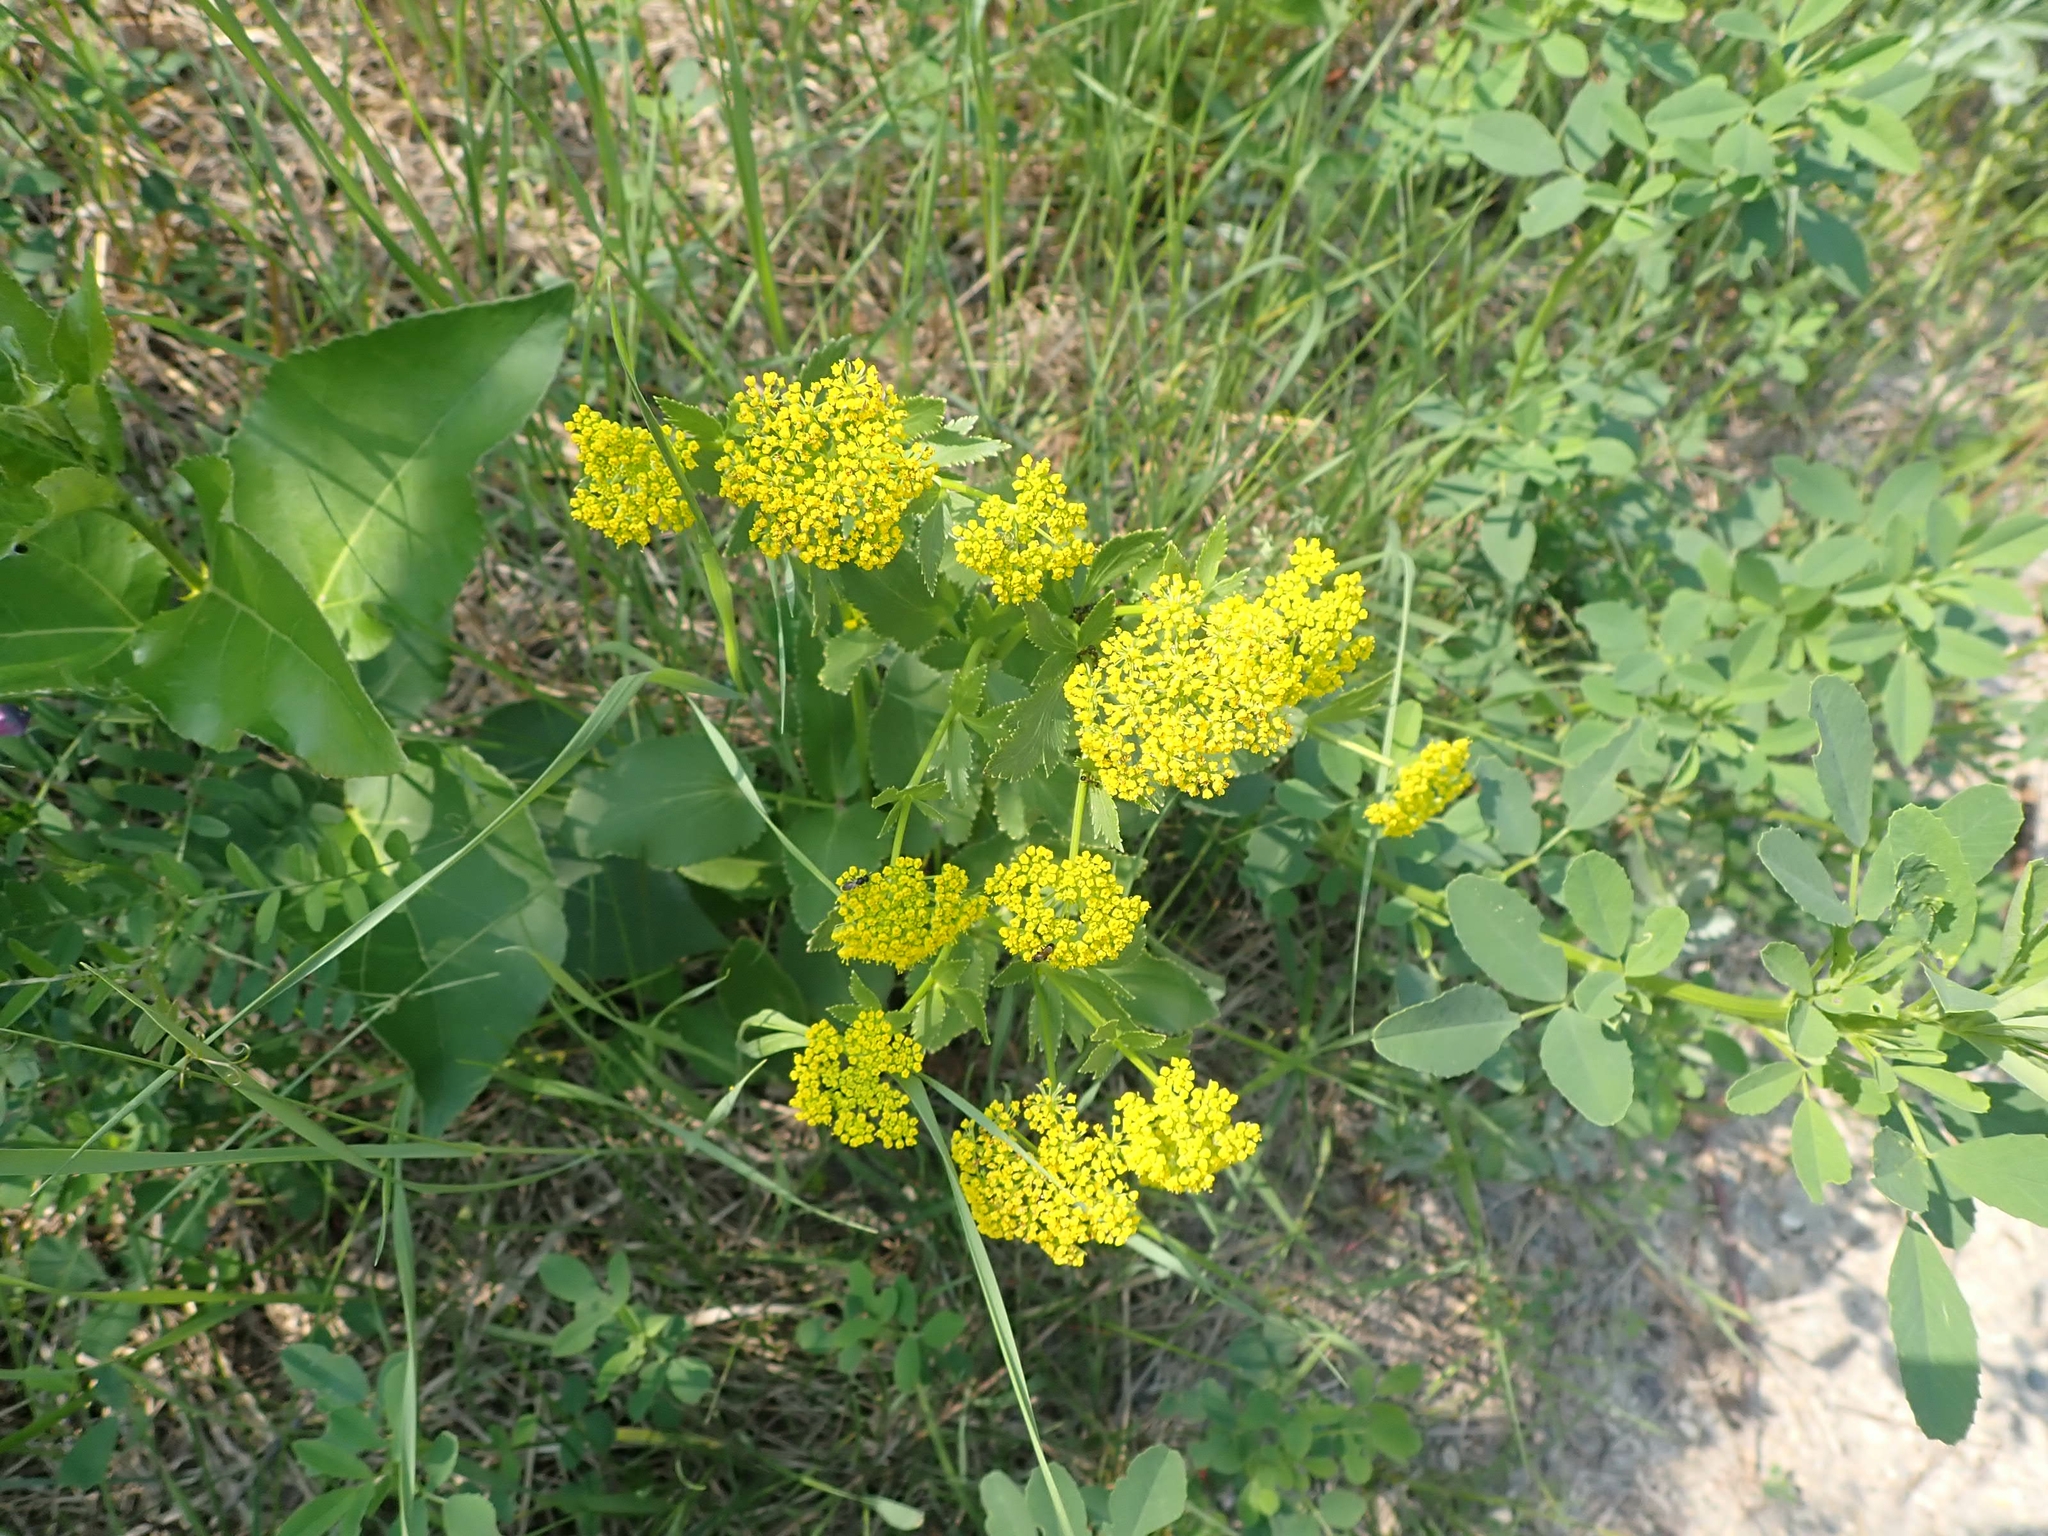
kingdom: Plantae
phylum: Tracheophyta
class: Magnoliopsida
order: Apiales
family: Apiaceae
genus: Zizia
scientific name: Zizia aptera
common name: Heart-leaved alexanders
